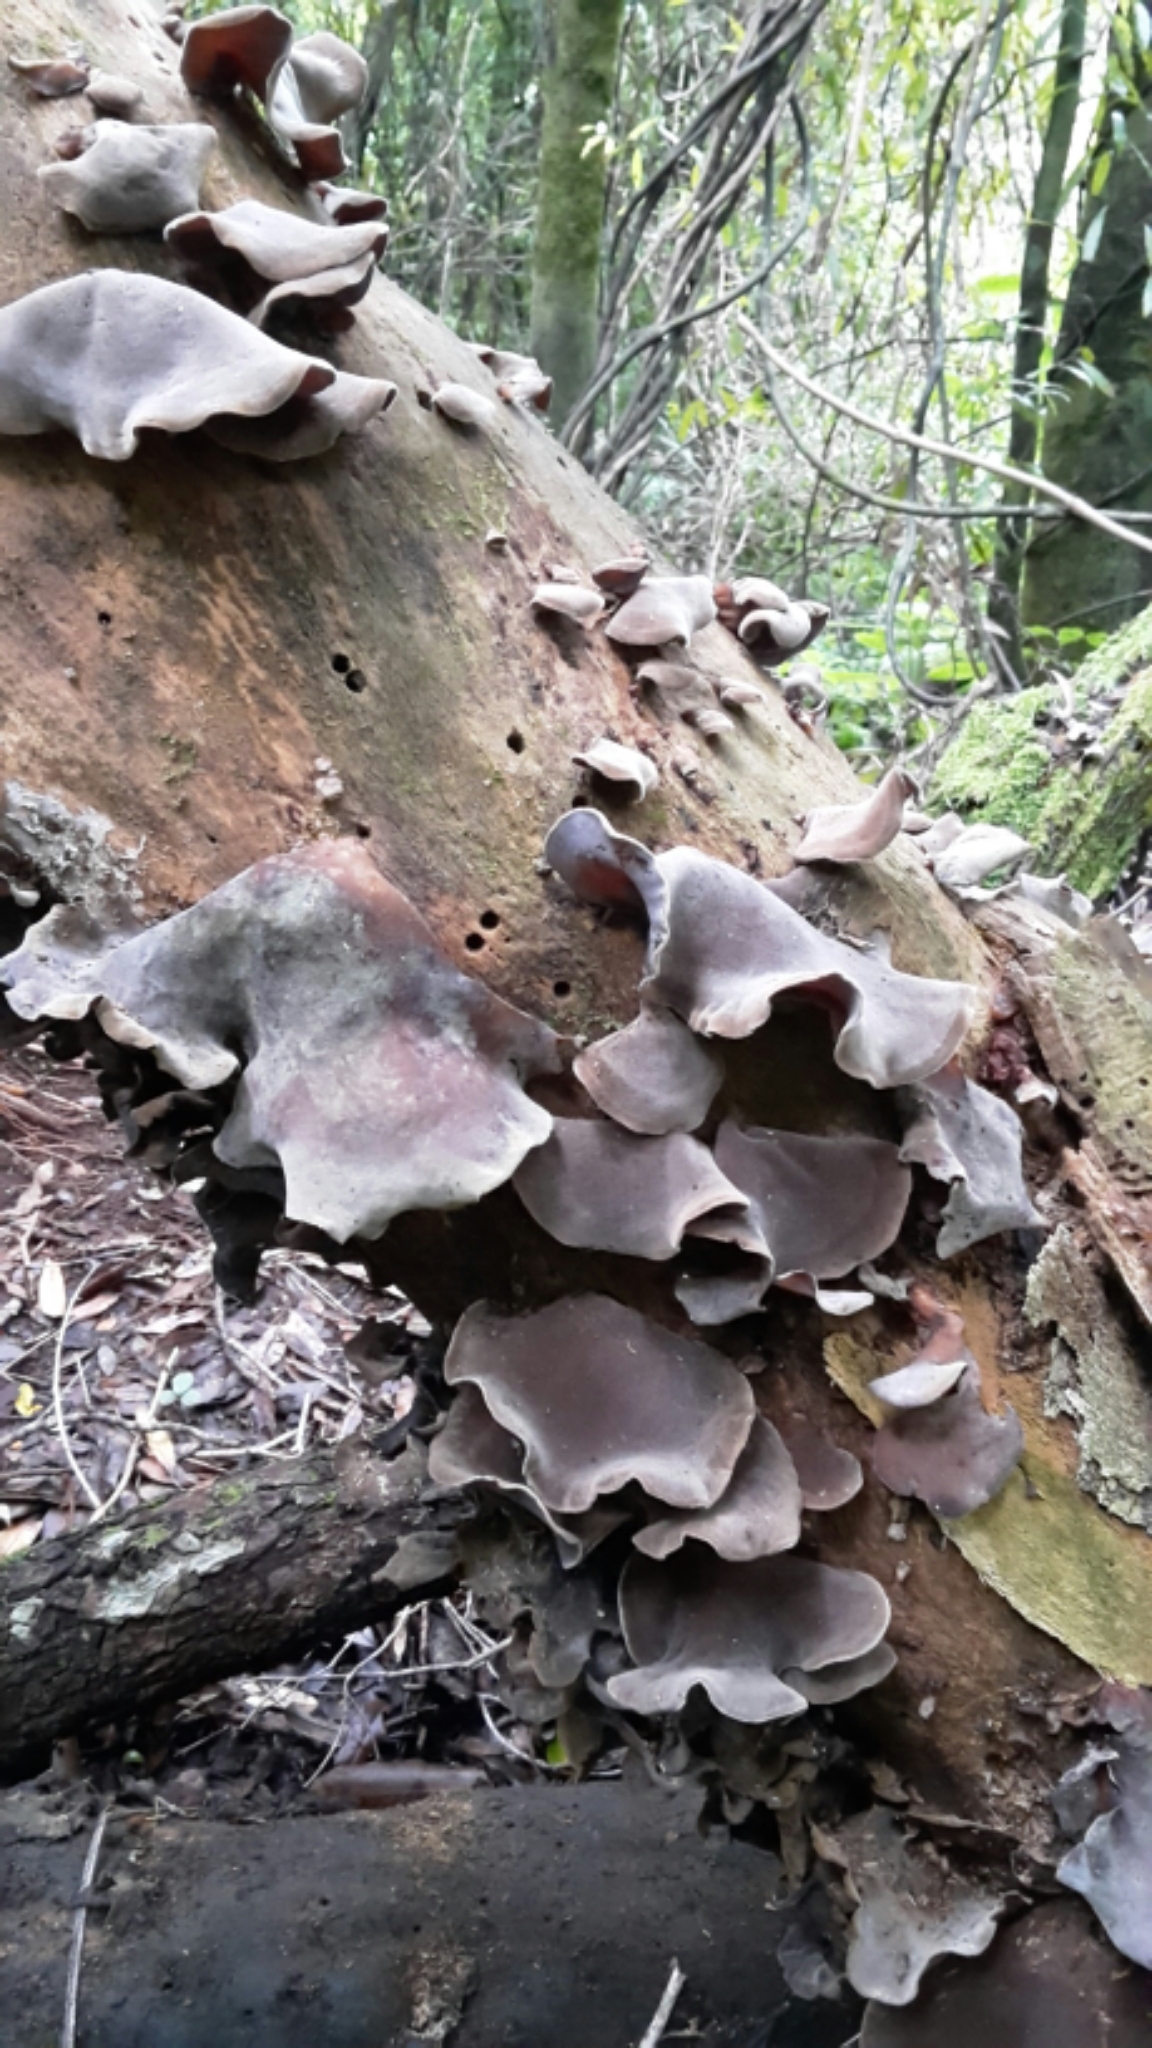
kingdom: Fungi
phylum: Basidiomycota
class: Agaricomycetes
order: Auriculariales
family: Auriculariaceae
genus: Auricularia
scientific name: Auricularia cornea
